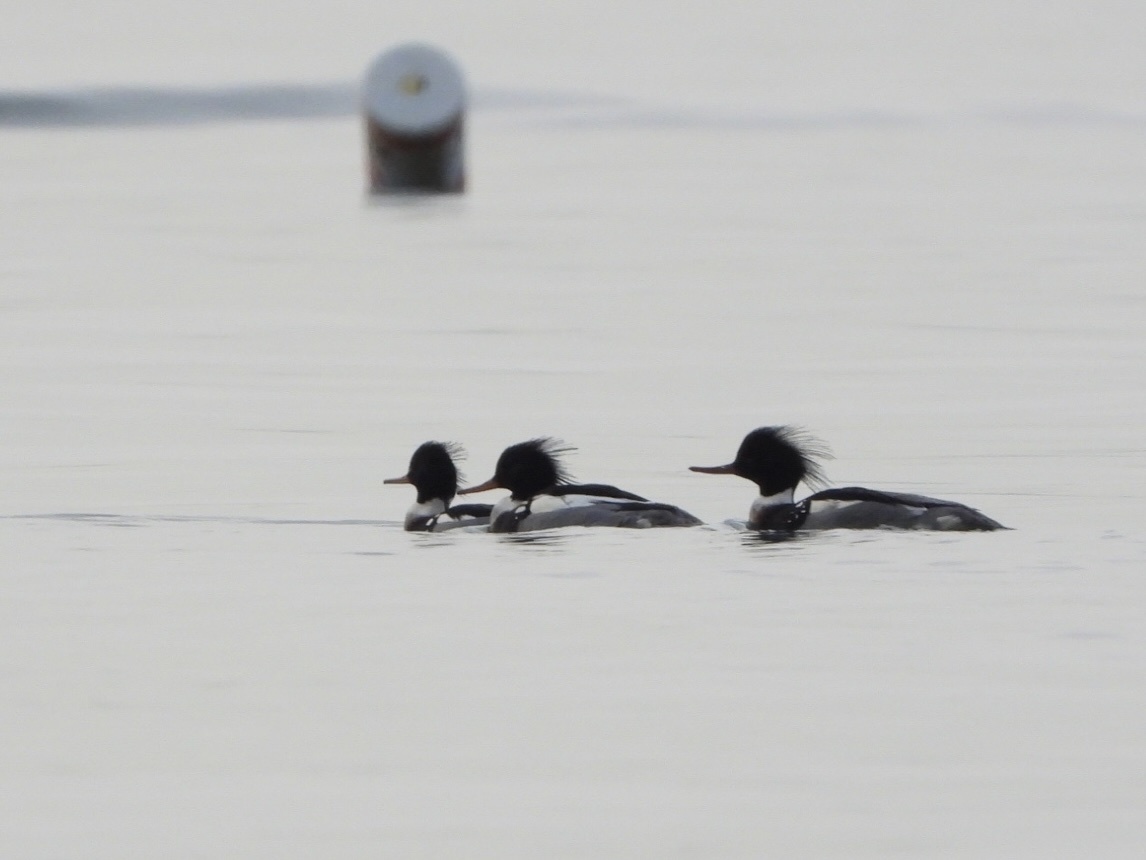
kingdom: Animalia
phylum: Chordata
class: Aves
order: Anseriformes
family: Anatidae
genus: Mergus
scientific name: Mergus serrator
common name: Red-breasted merganser
